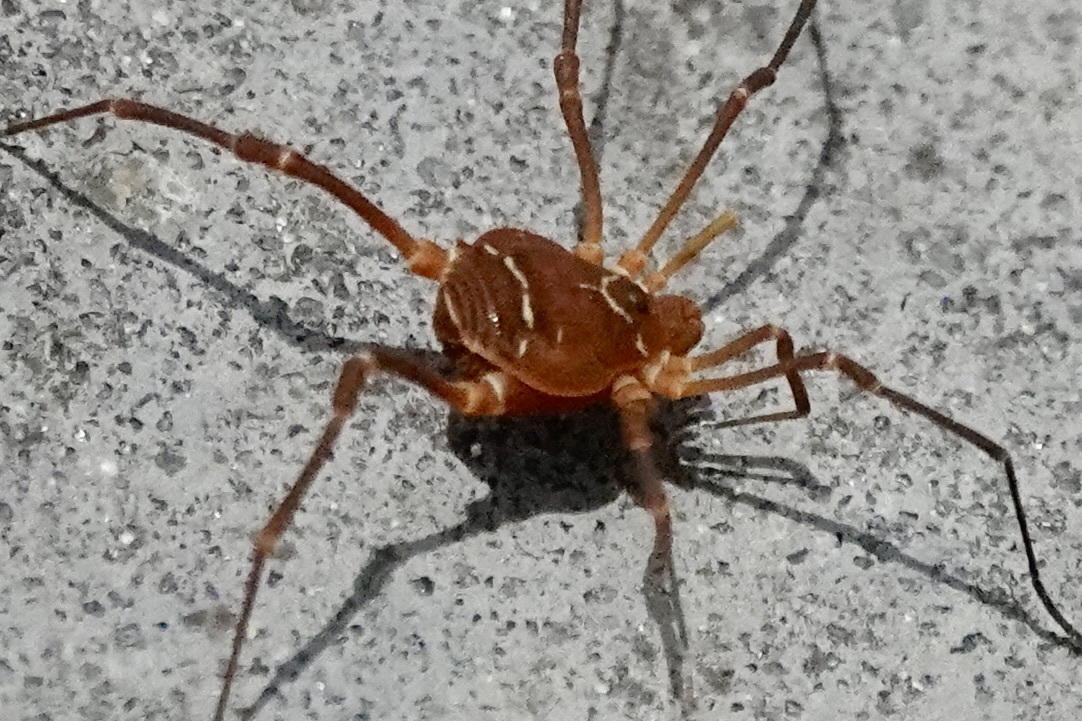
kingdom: Animalia
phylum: Arthropoda
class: Arachnida
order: Opiliones
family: Cosmetidae
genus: Libitioides
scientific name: Libitioides sayi
